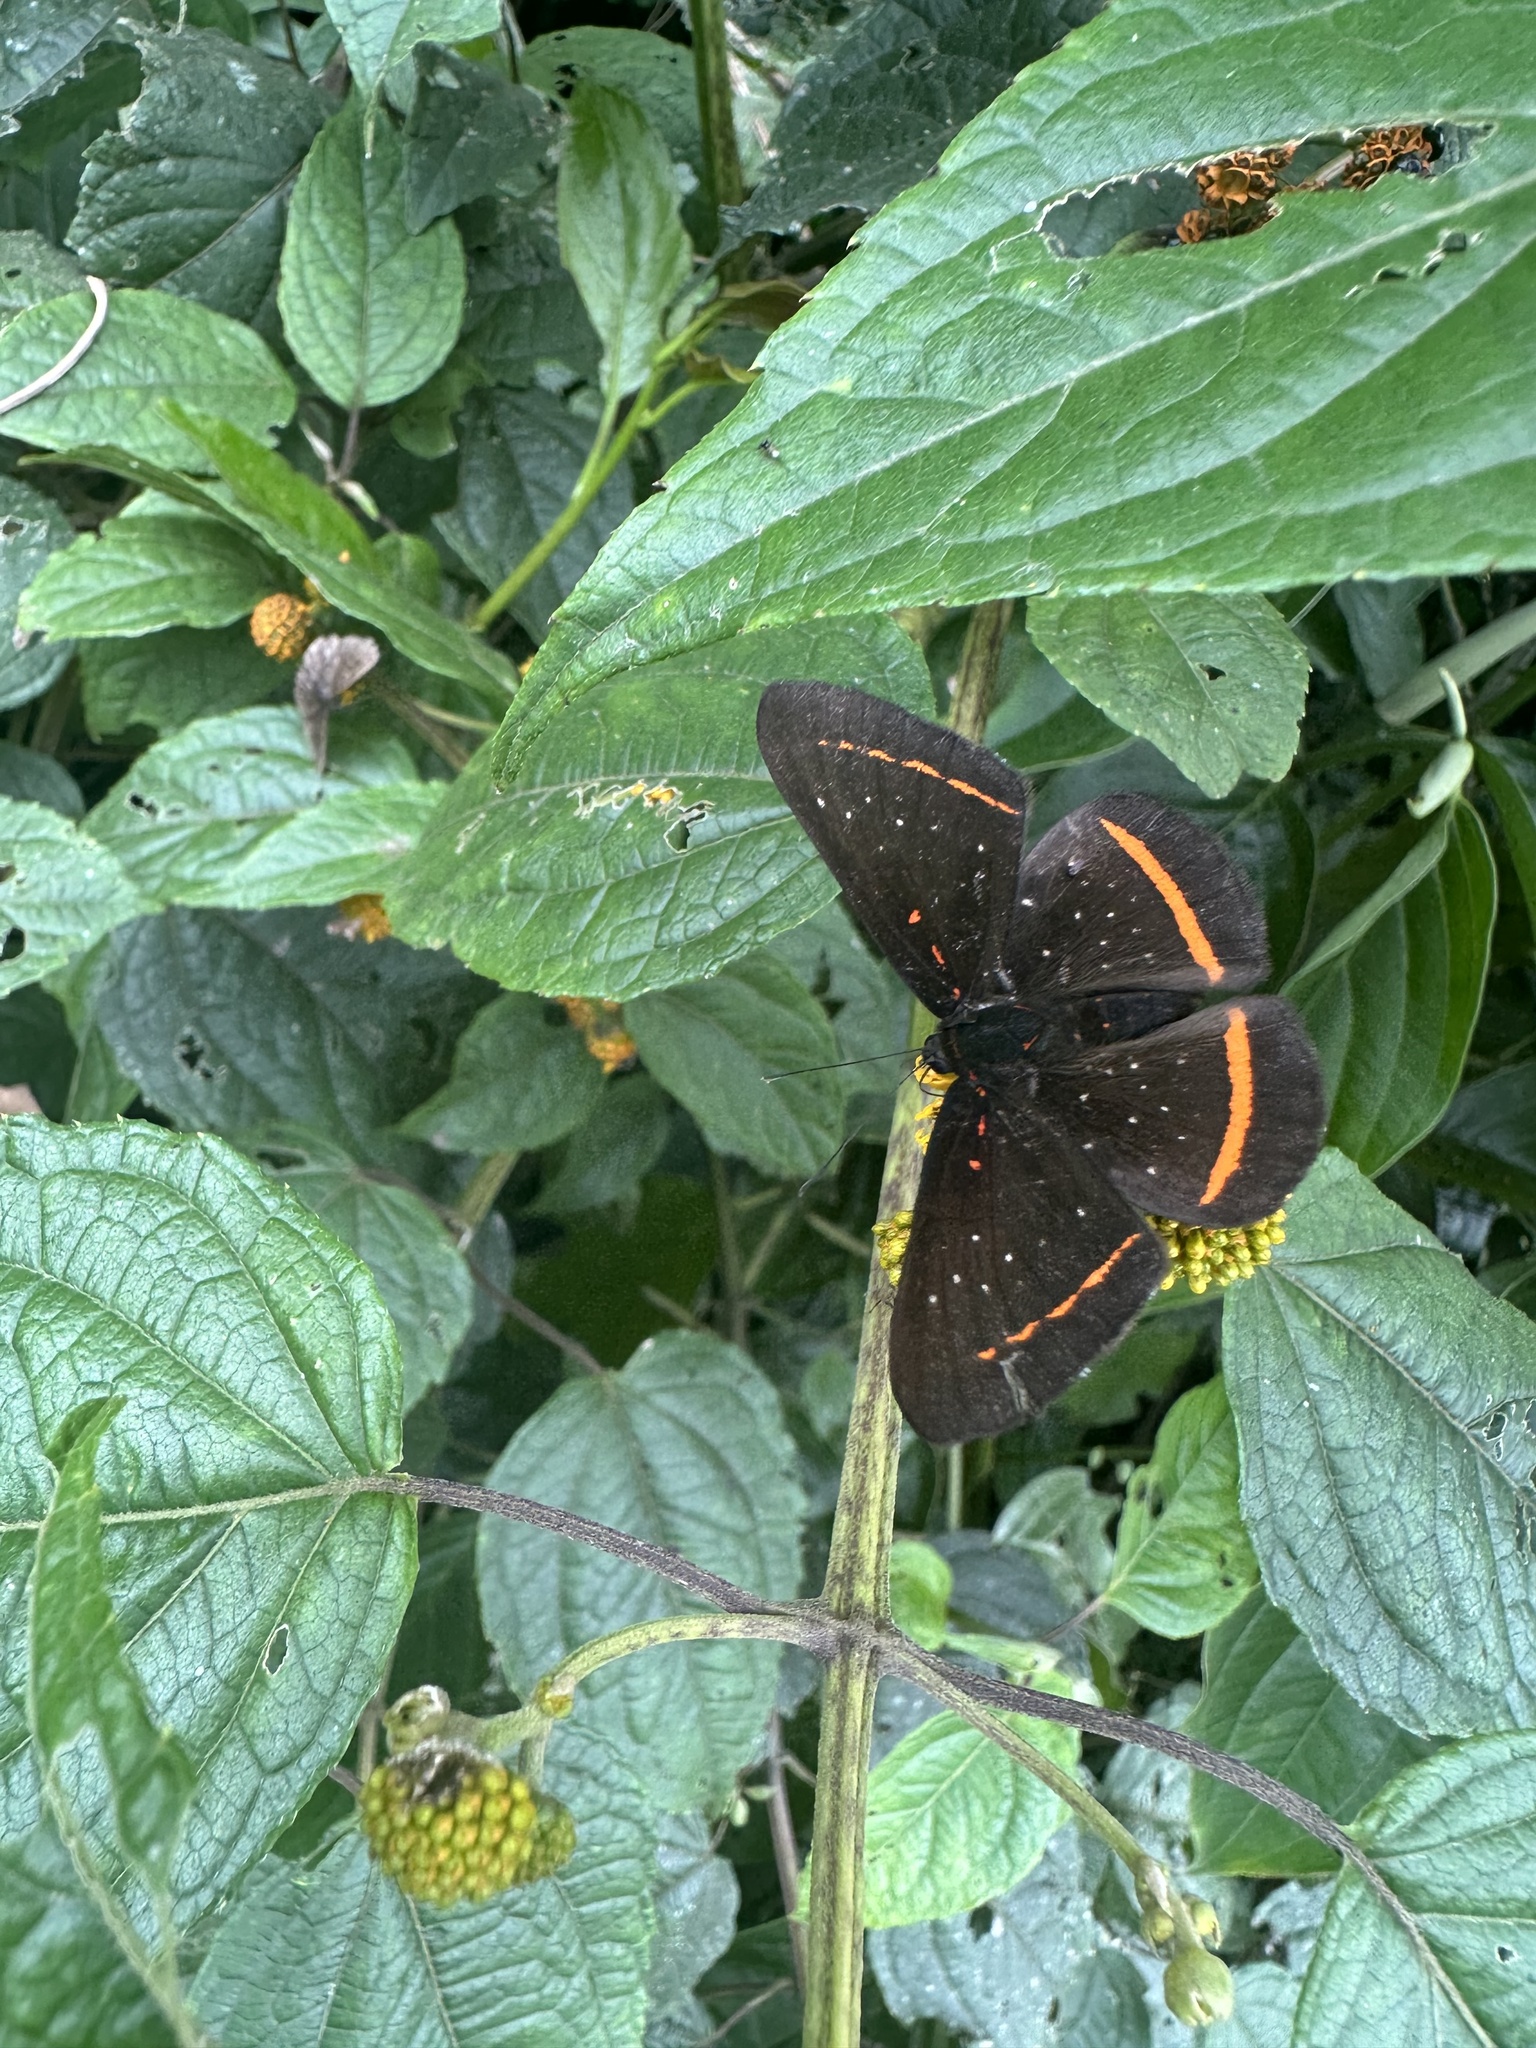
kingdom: Animalia
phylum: Arthropoda
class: Insecta
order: Lepidoptera
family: Riodinidae
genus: Amarynthis
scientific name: Amarynthis meneria
